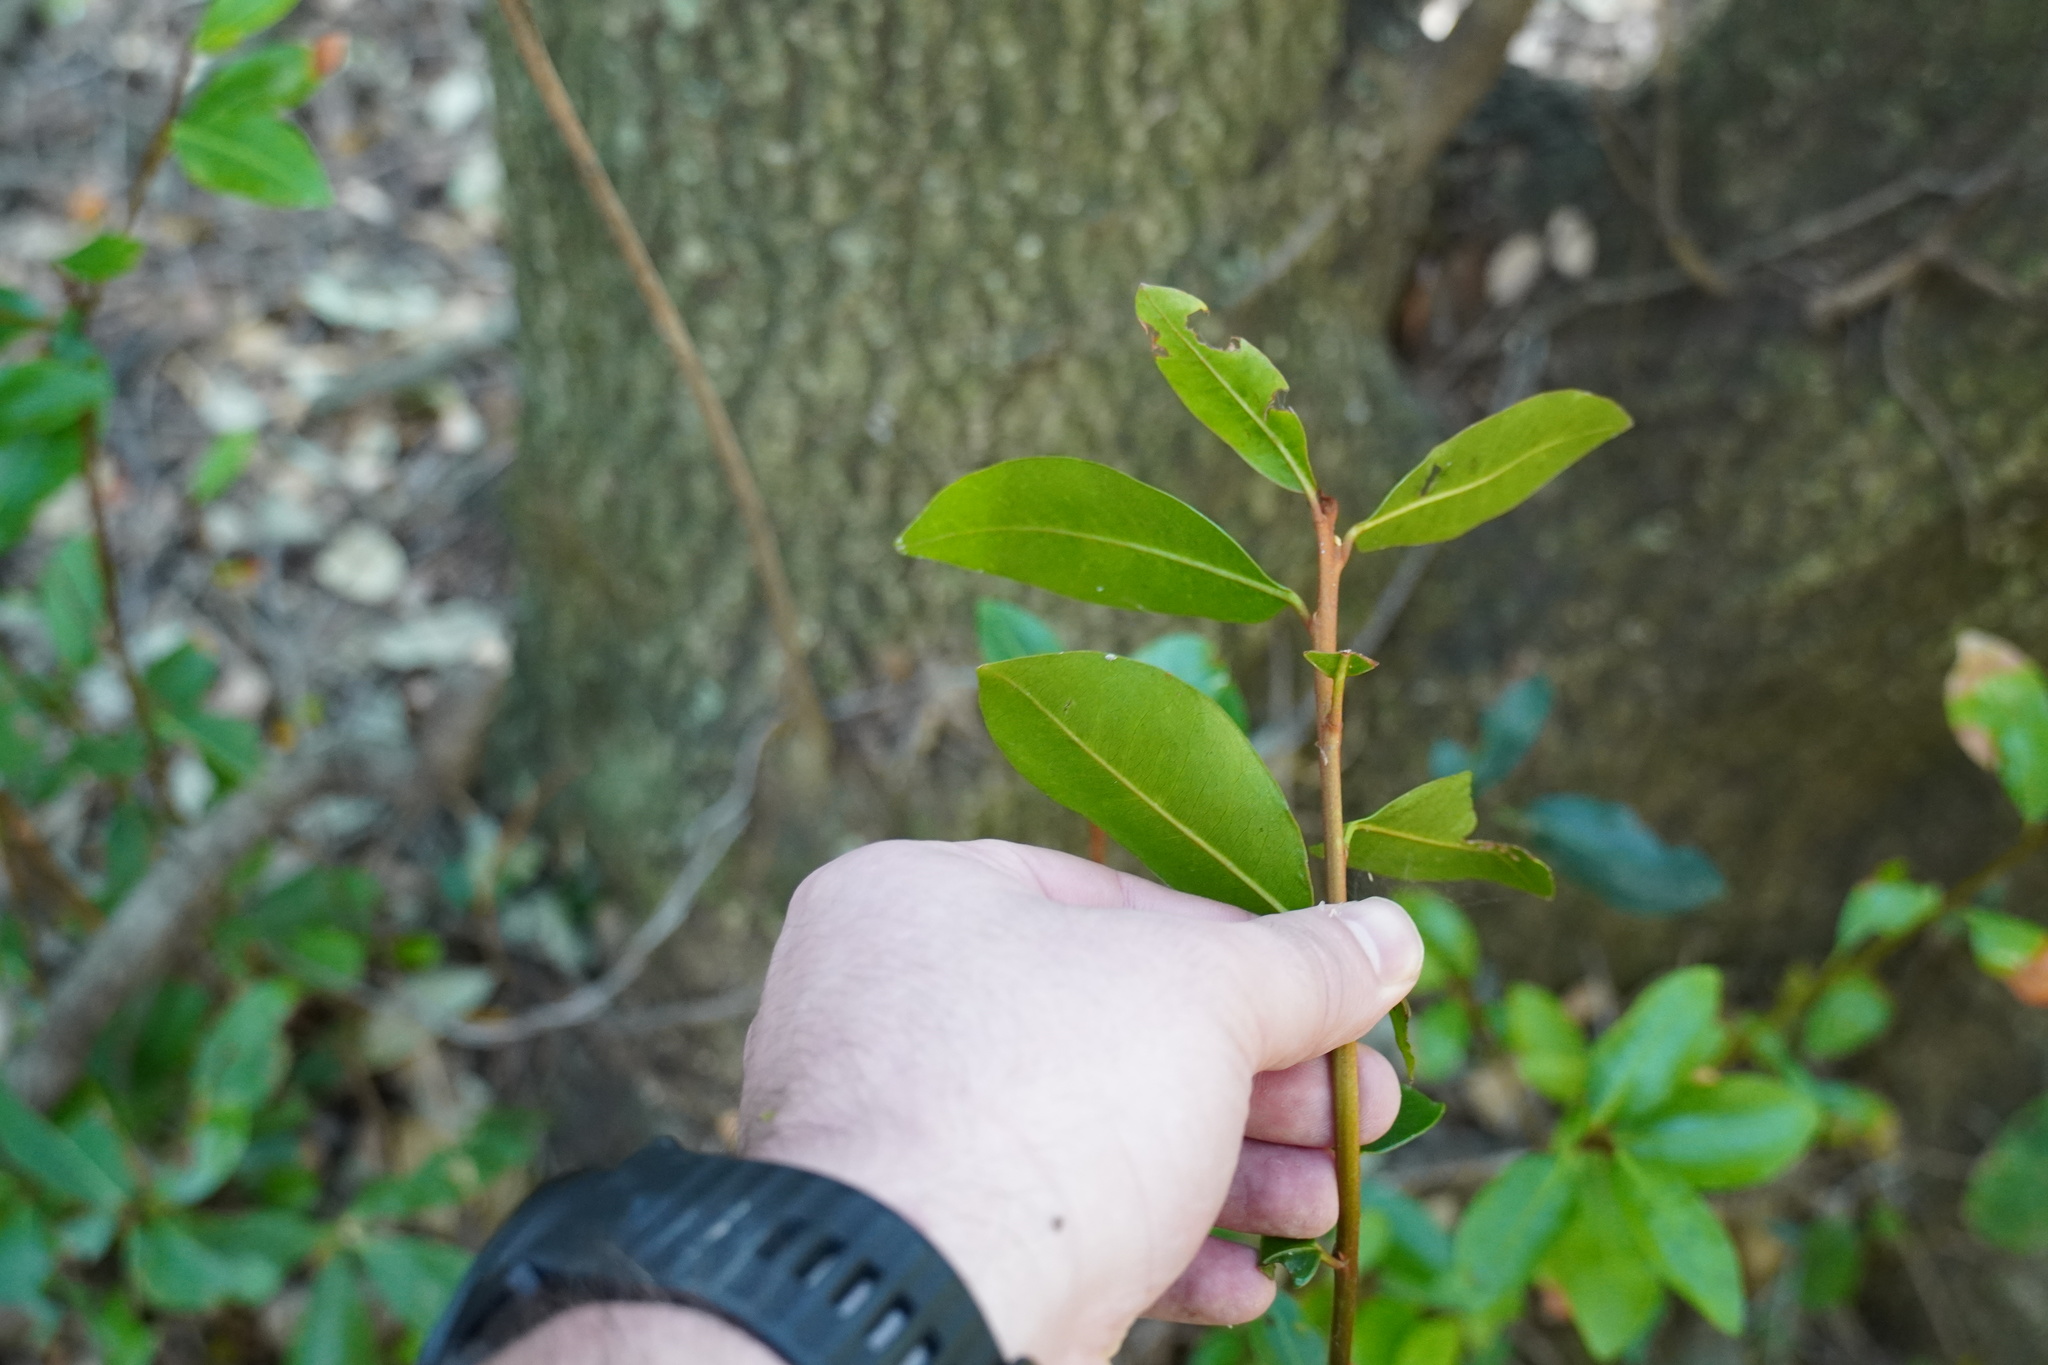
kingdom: Plantae
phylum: Tracheophyta
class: Magnoliopsida
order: Ericales
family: Sapotaceae
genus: Mimusops
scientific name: Mimusops zeyheri
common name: Transvaal red milkwood
